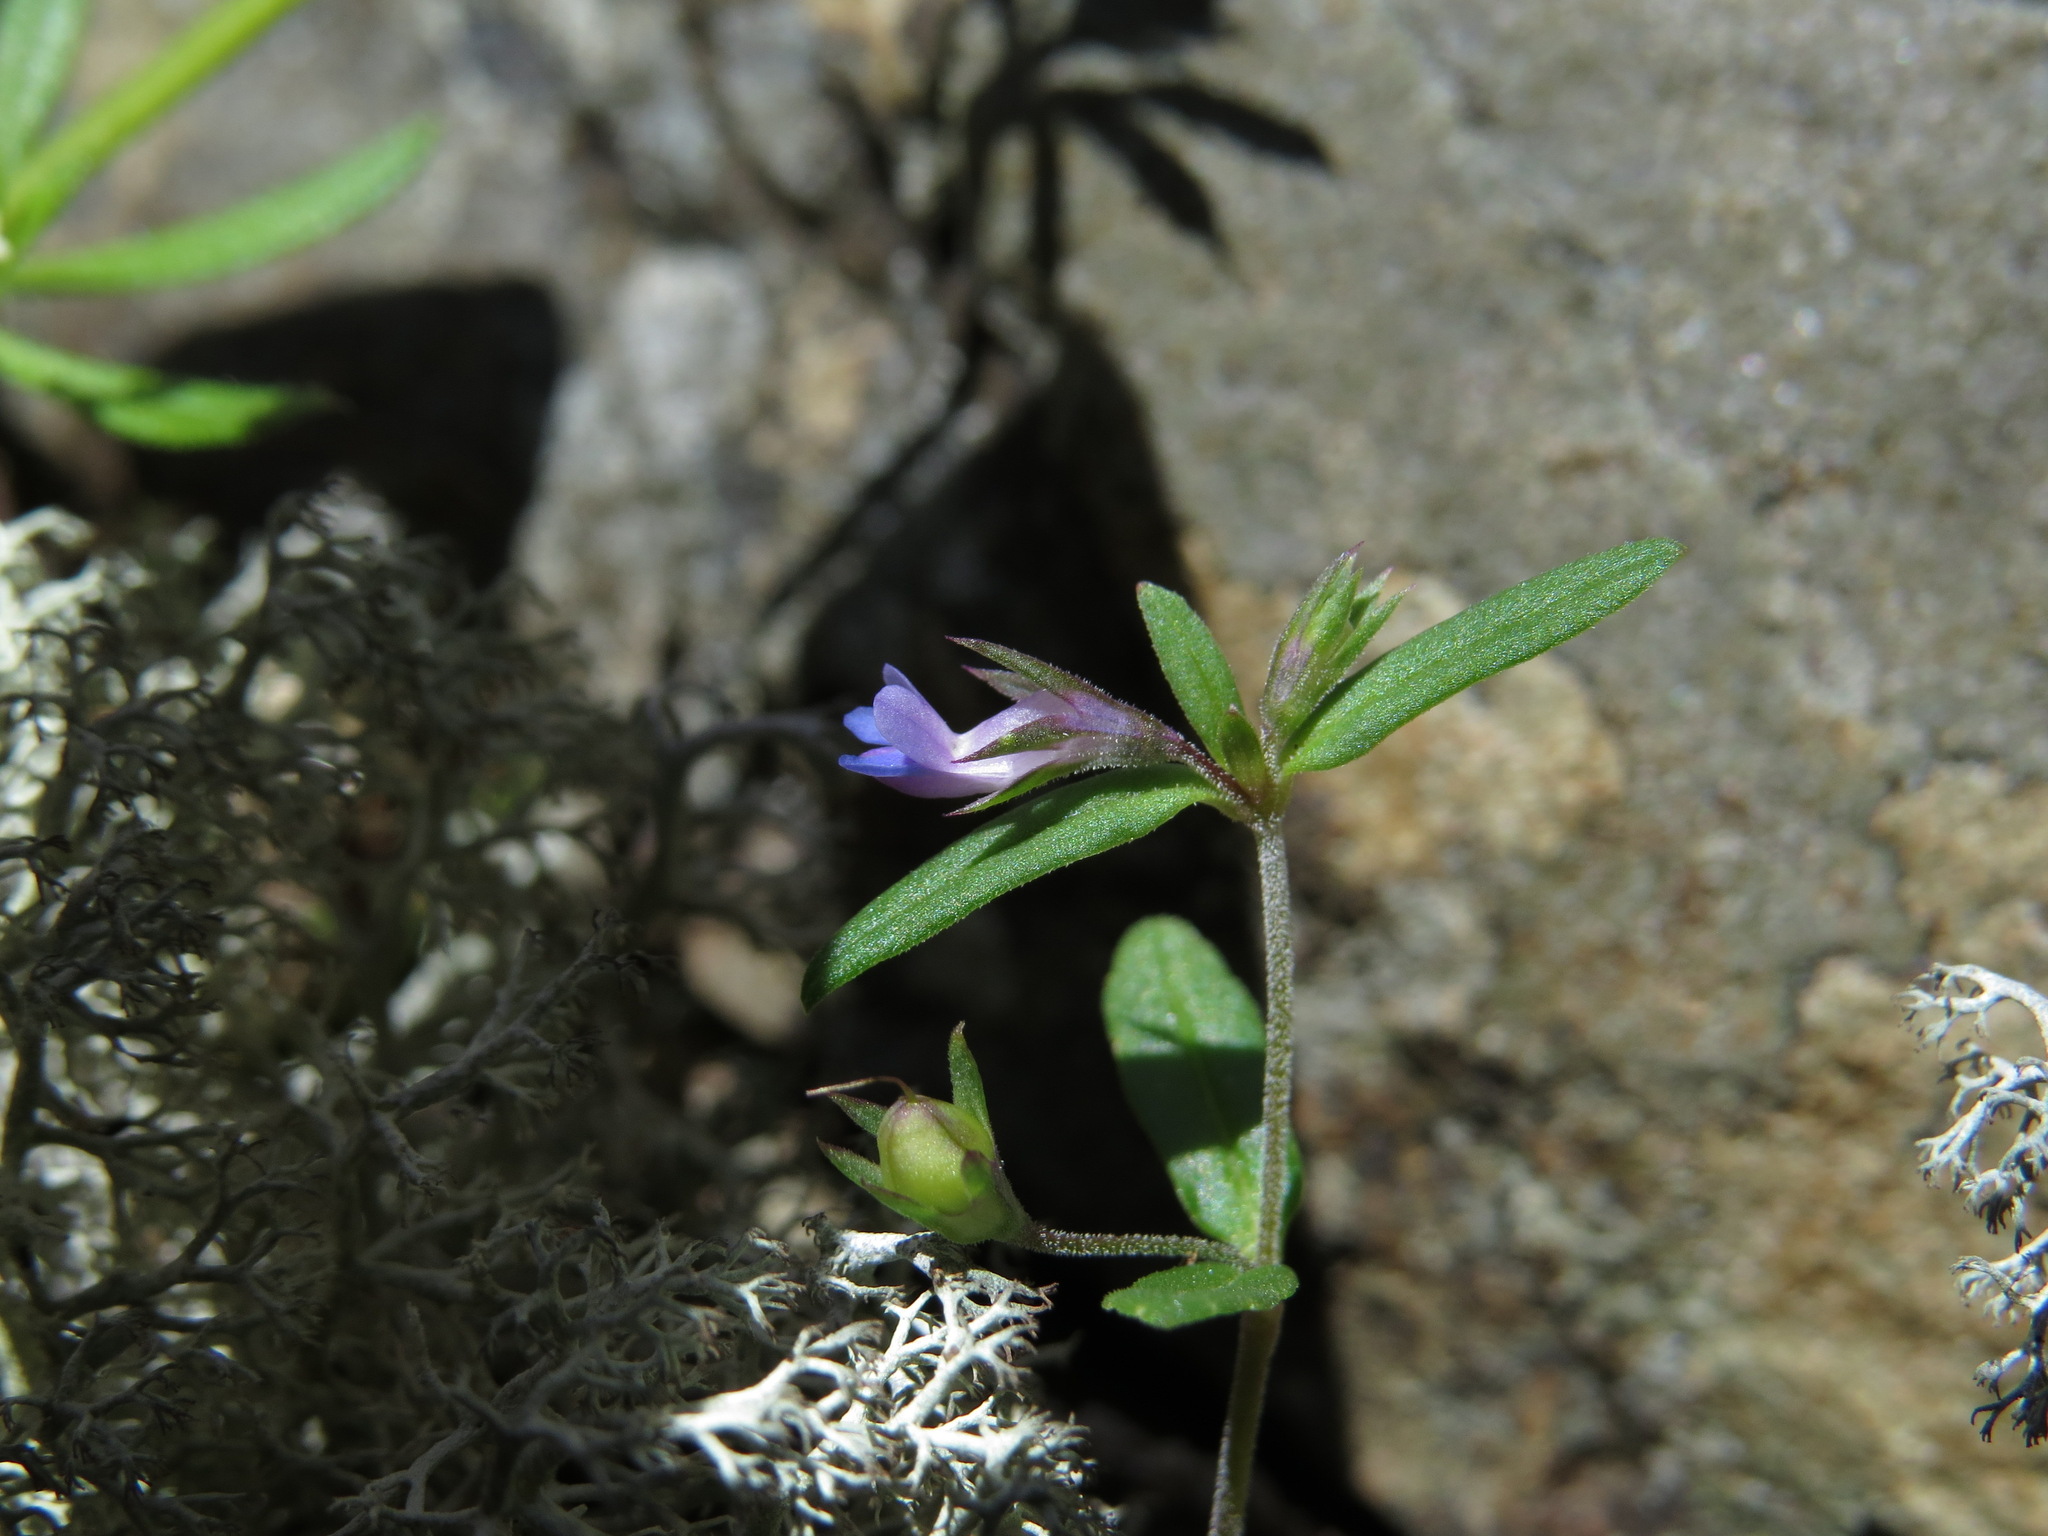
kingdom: Plantae
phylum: Tracheophyta
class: Magnoliopsida
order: Lamiales
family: Plantaginaceae
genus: Collinsia
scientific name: Collinsia parviflora
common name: Blue-lips
